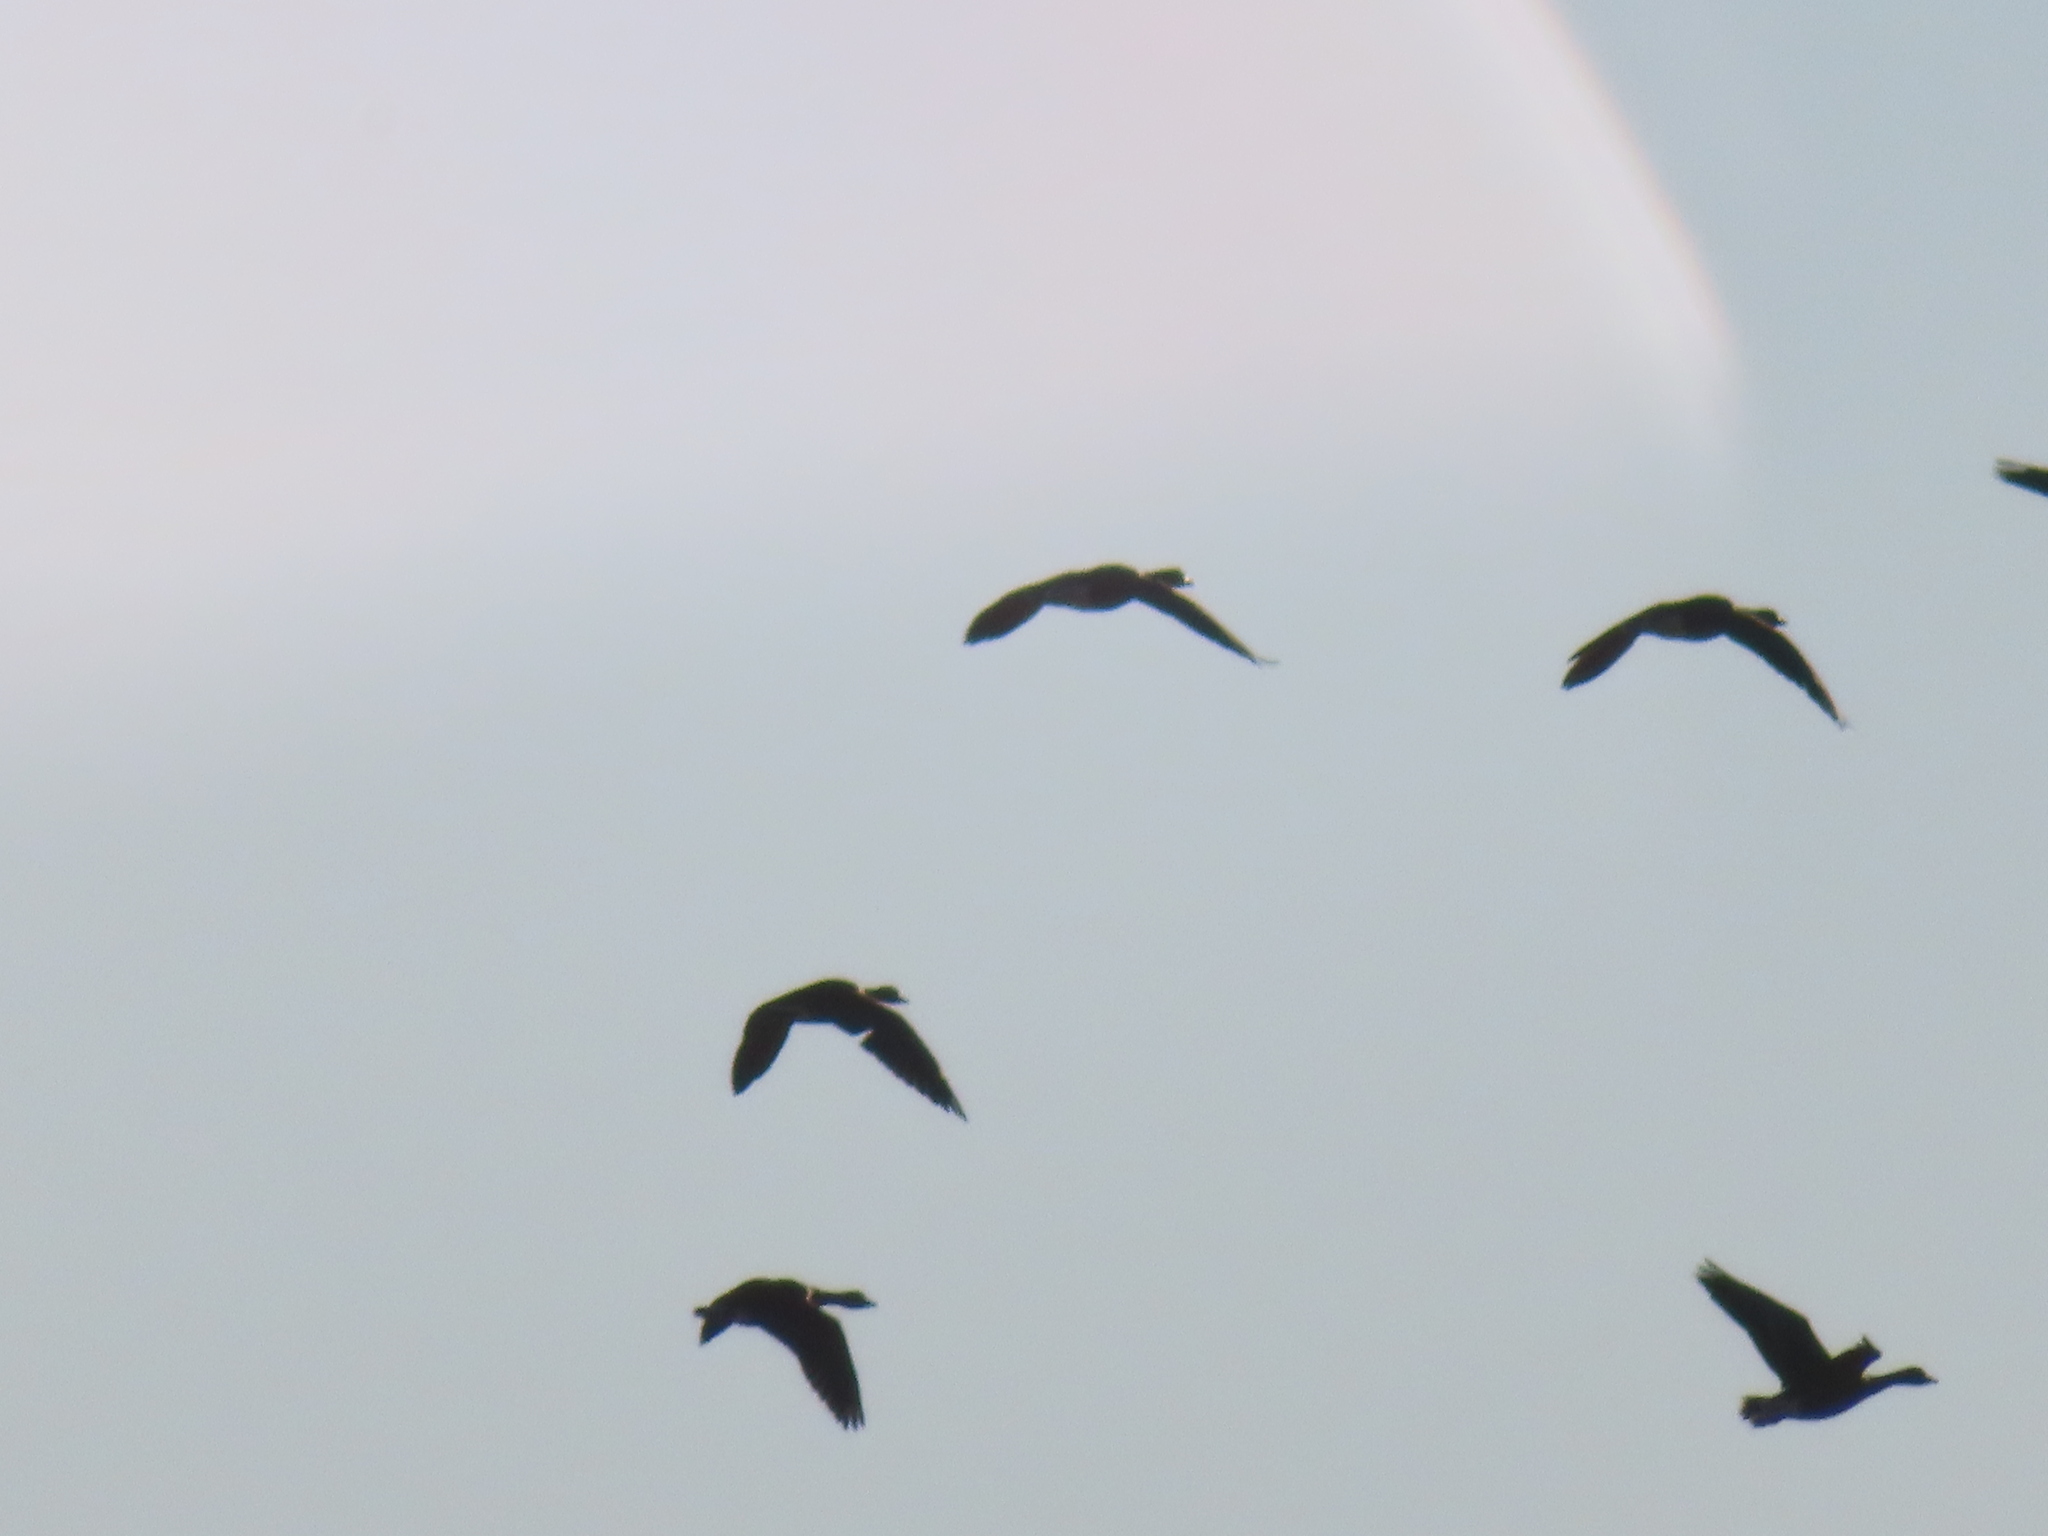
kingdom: Animalia
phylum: Chordata
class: Aves
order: Anseriformes
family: Anatidae
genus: Anser
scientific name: Anser caerulescens
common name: Snow goose
